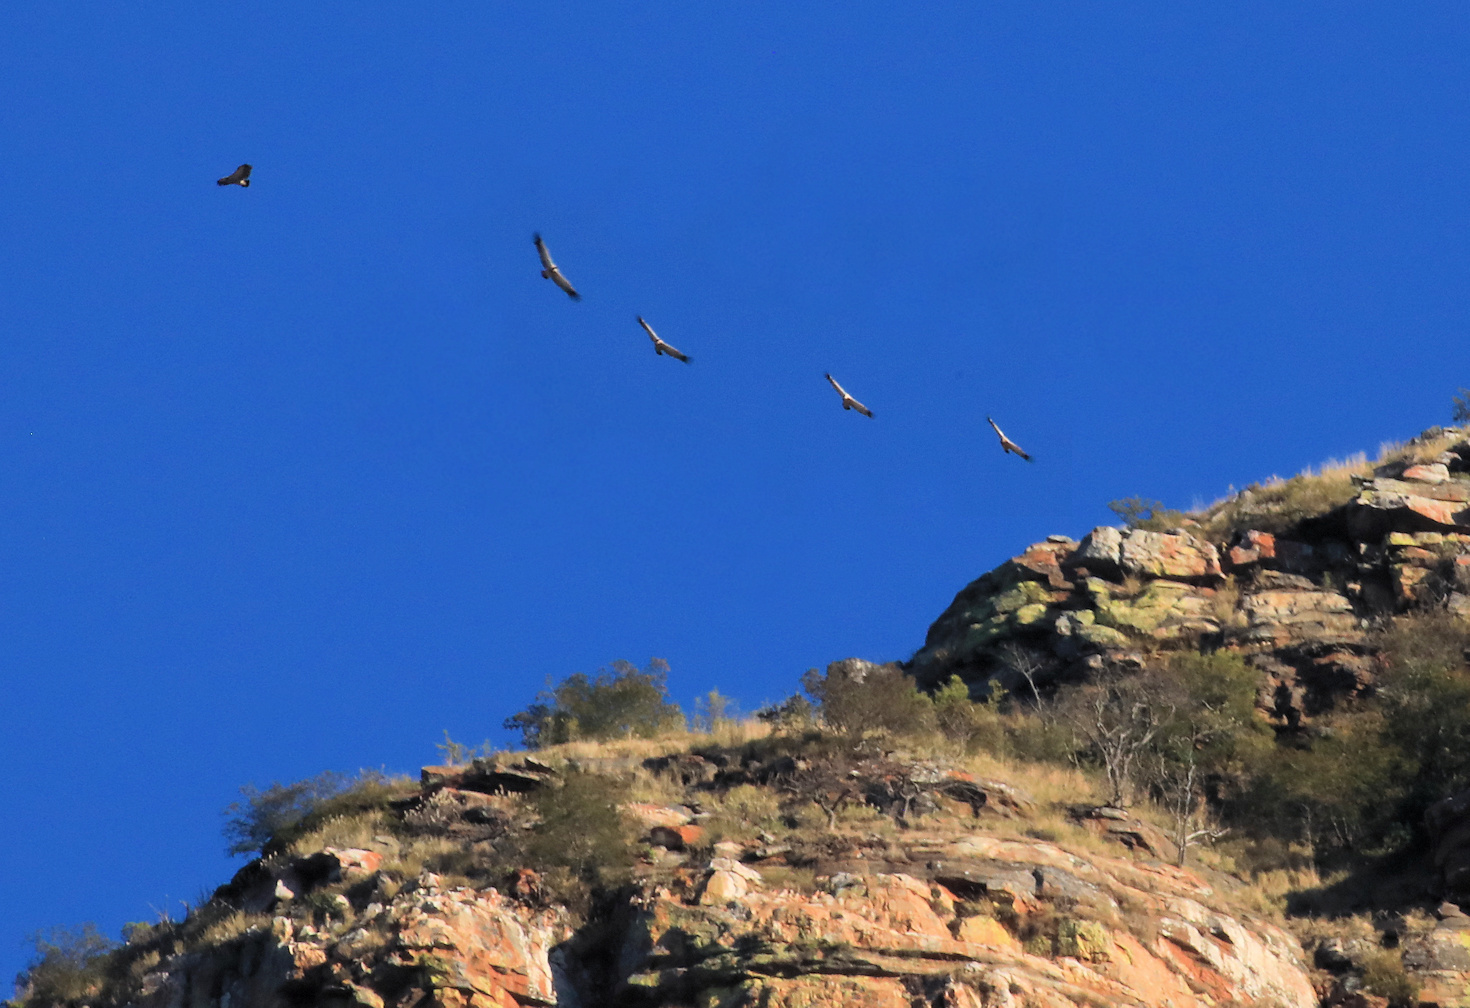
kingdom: Animalia
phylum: Chordata
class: Aves
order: Accipitriformes
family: Accipitridae
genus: Gyps
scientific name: Gyps coprotheres
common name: Cape vulture
